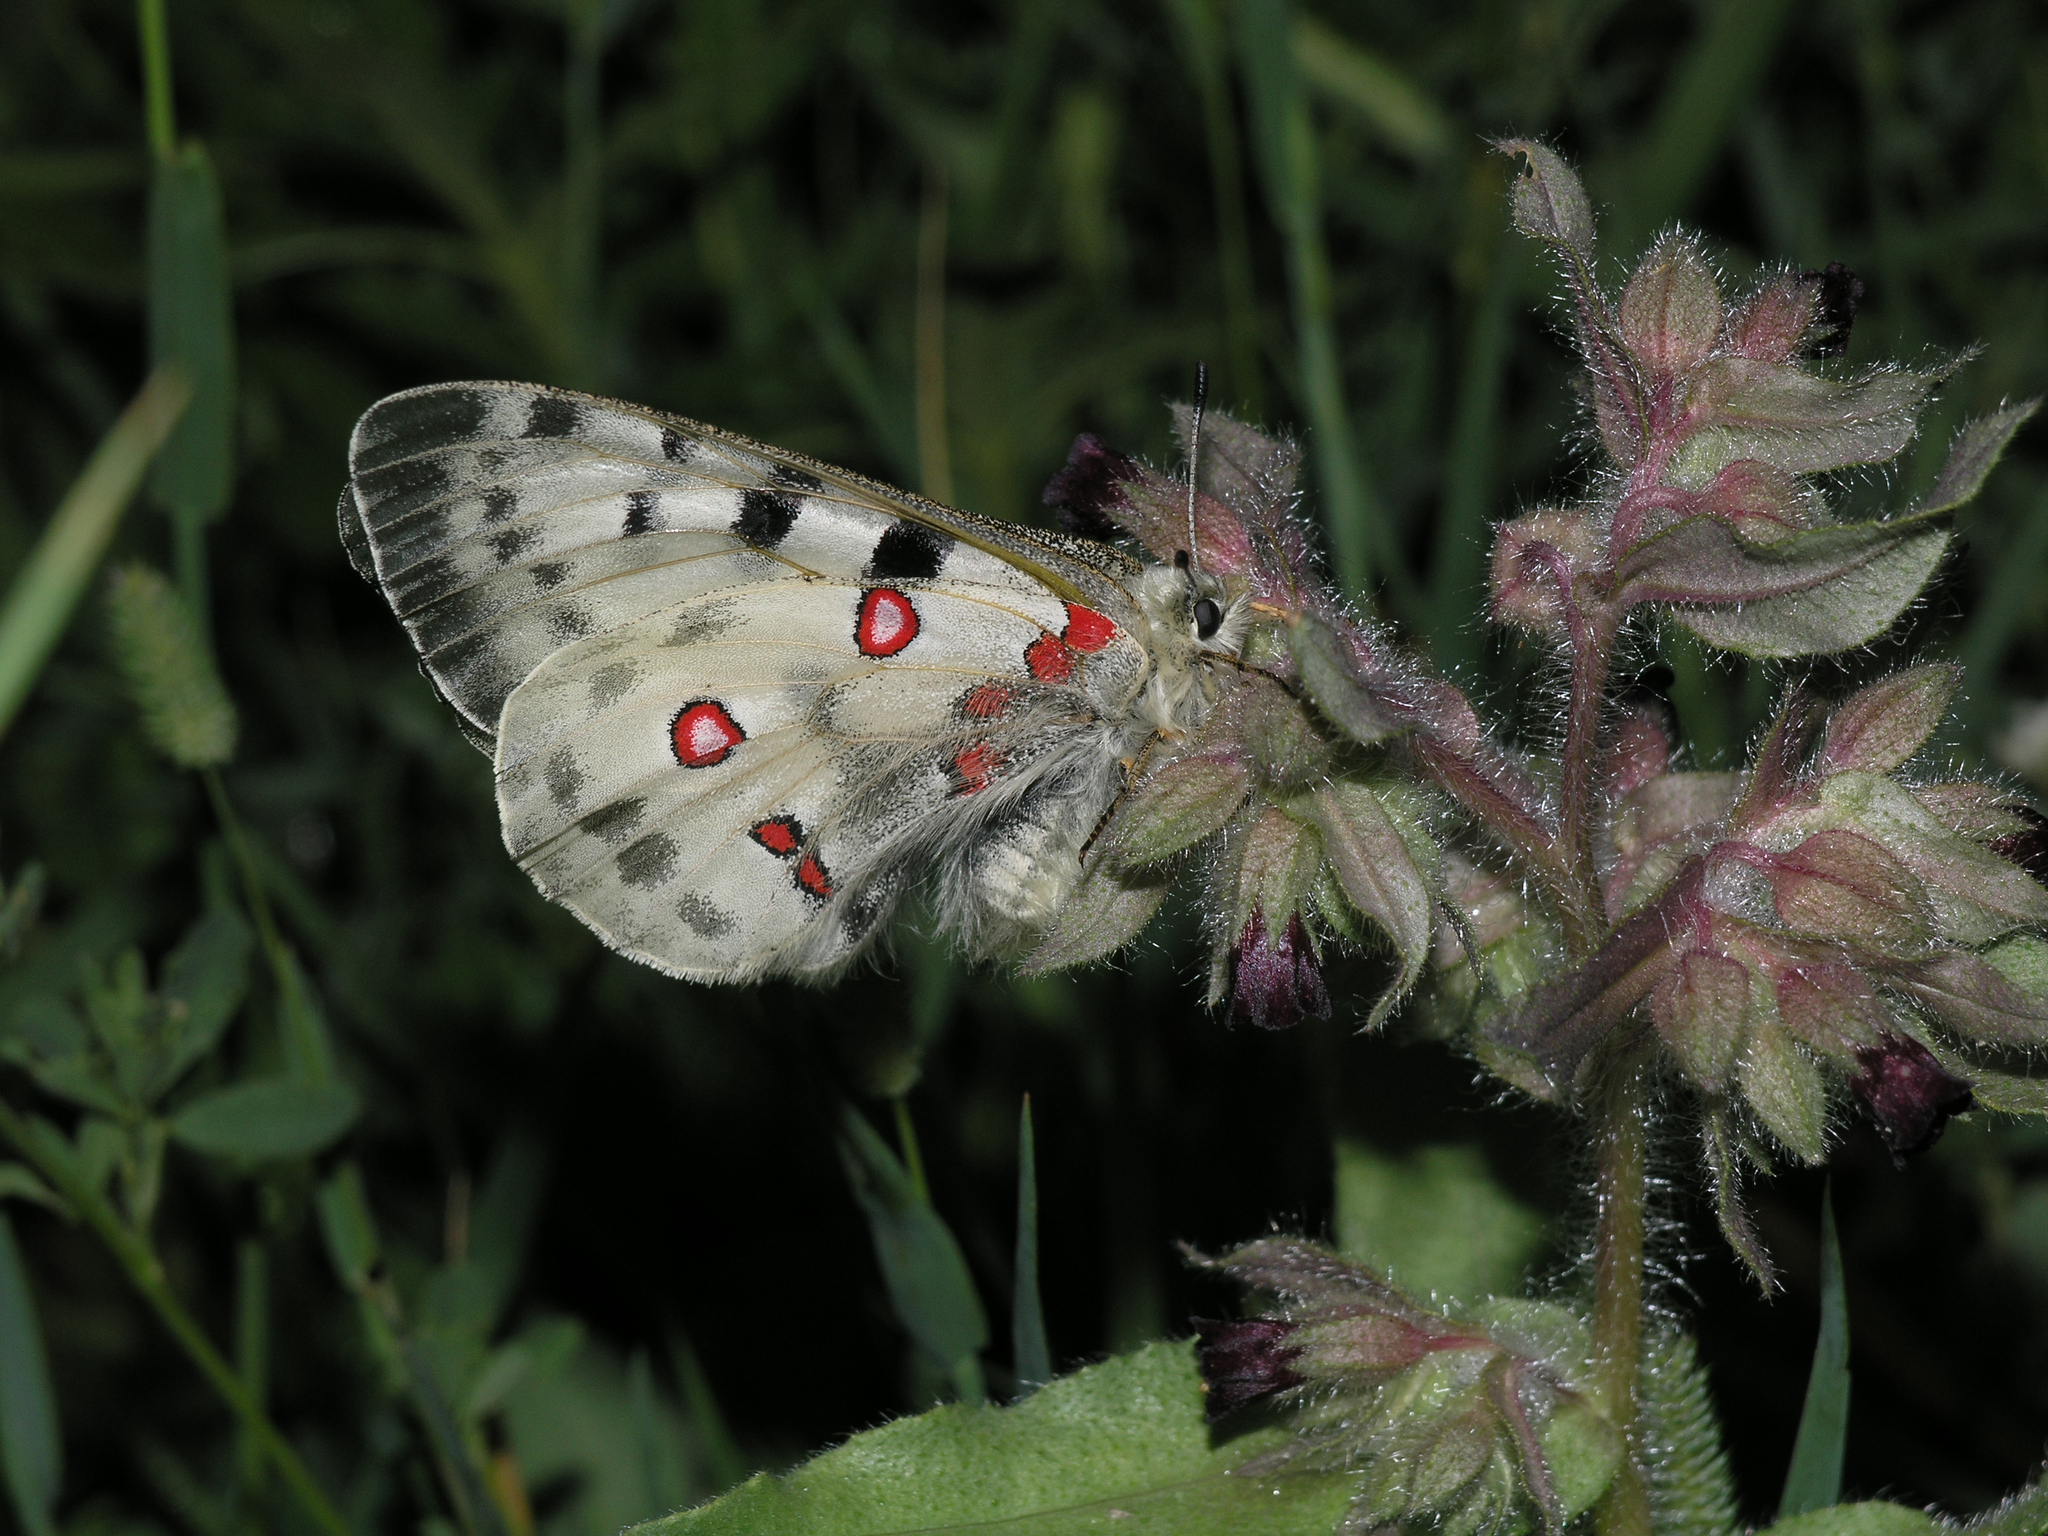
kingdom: Plantae
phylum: Tracheophyta
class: Magnoliopsida
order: Boraginales
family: Boraginaceae
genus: Nonea
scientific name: Nonea pulla
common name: Brown nonea
